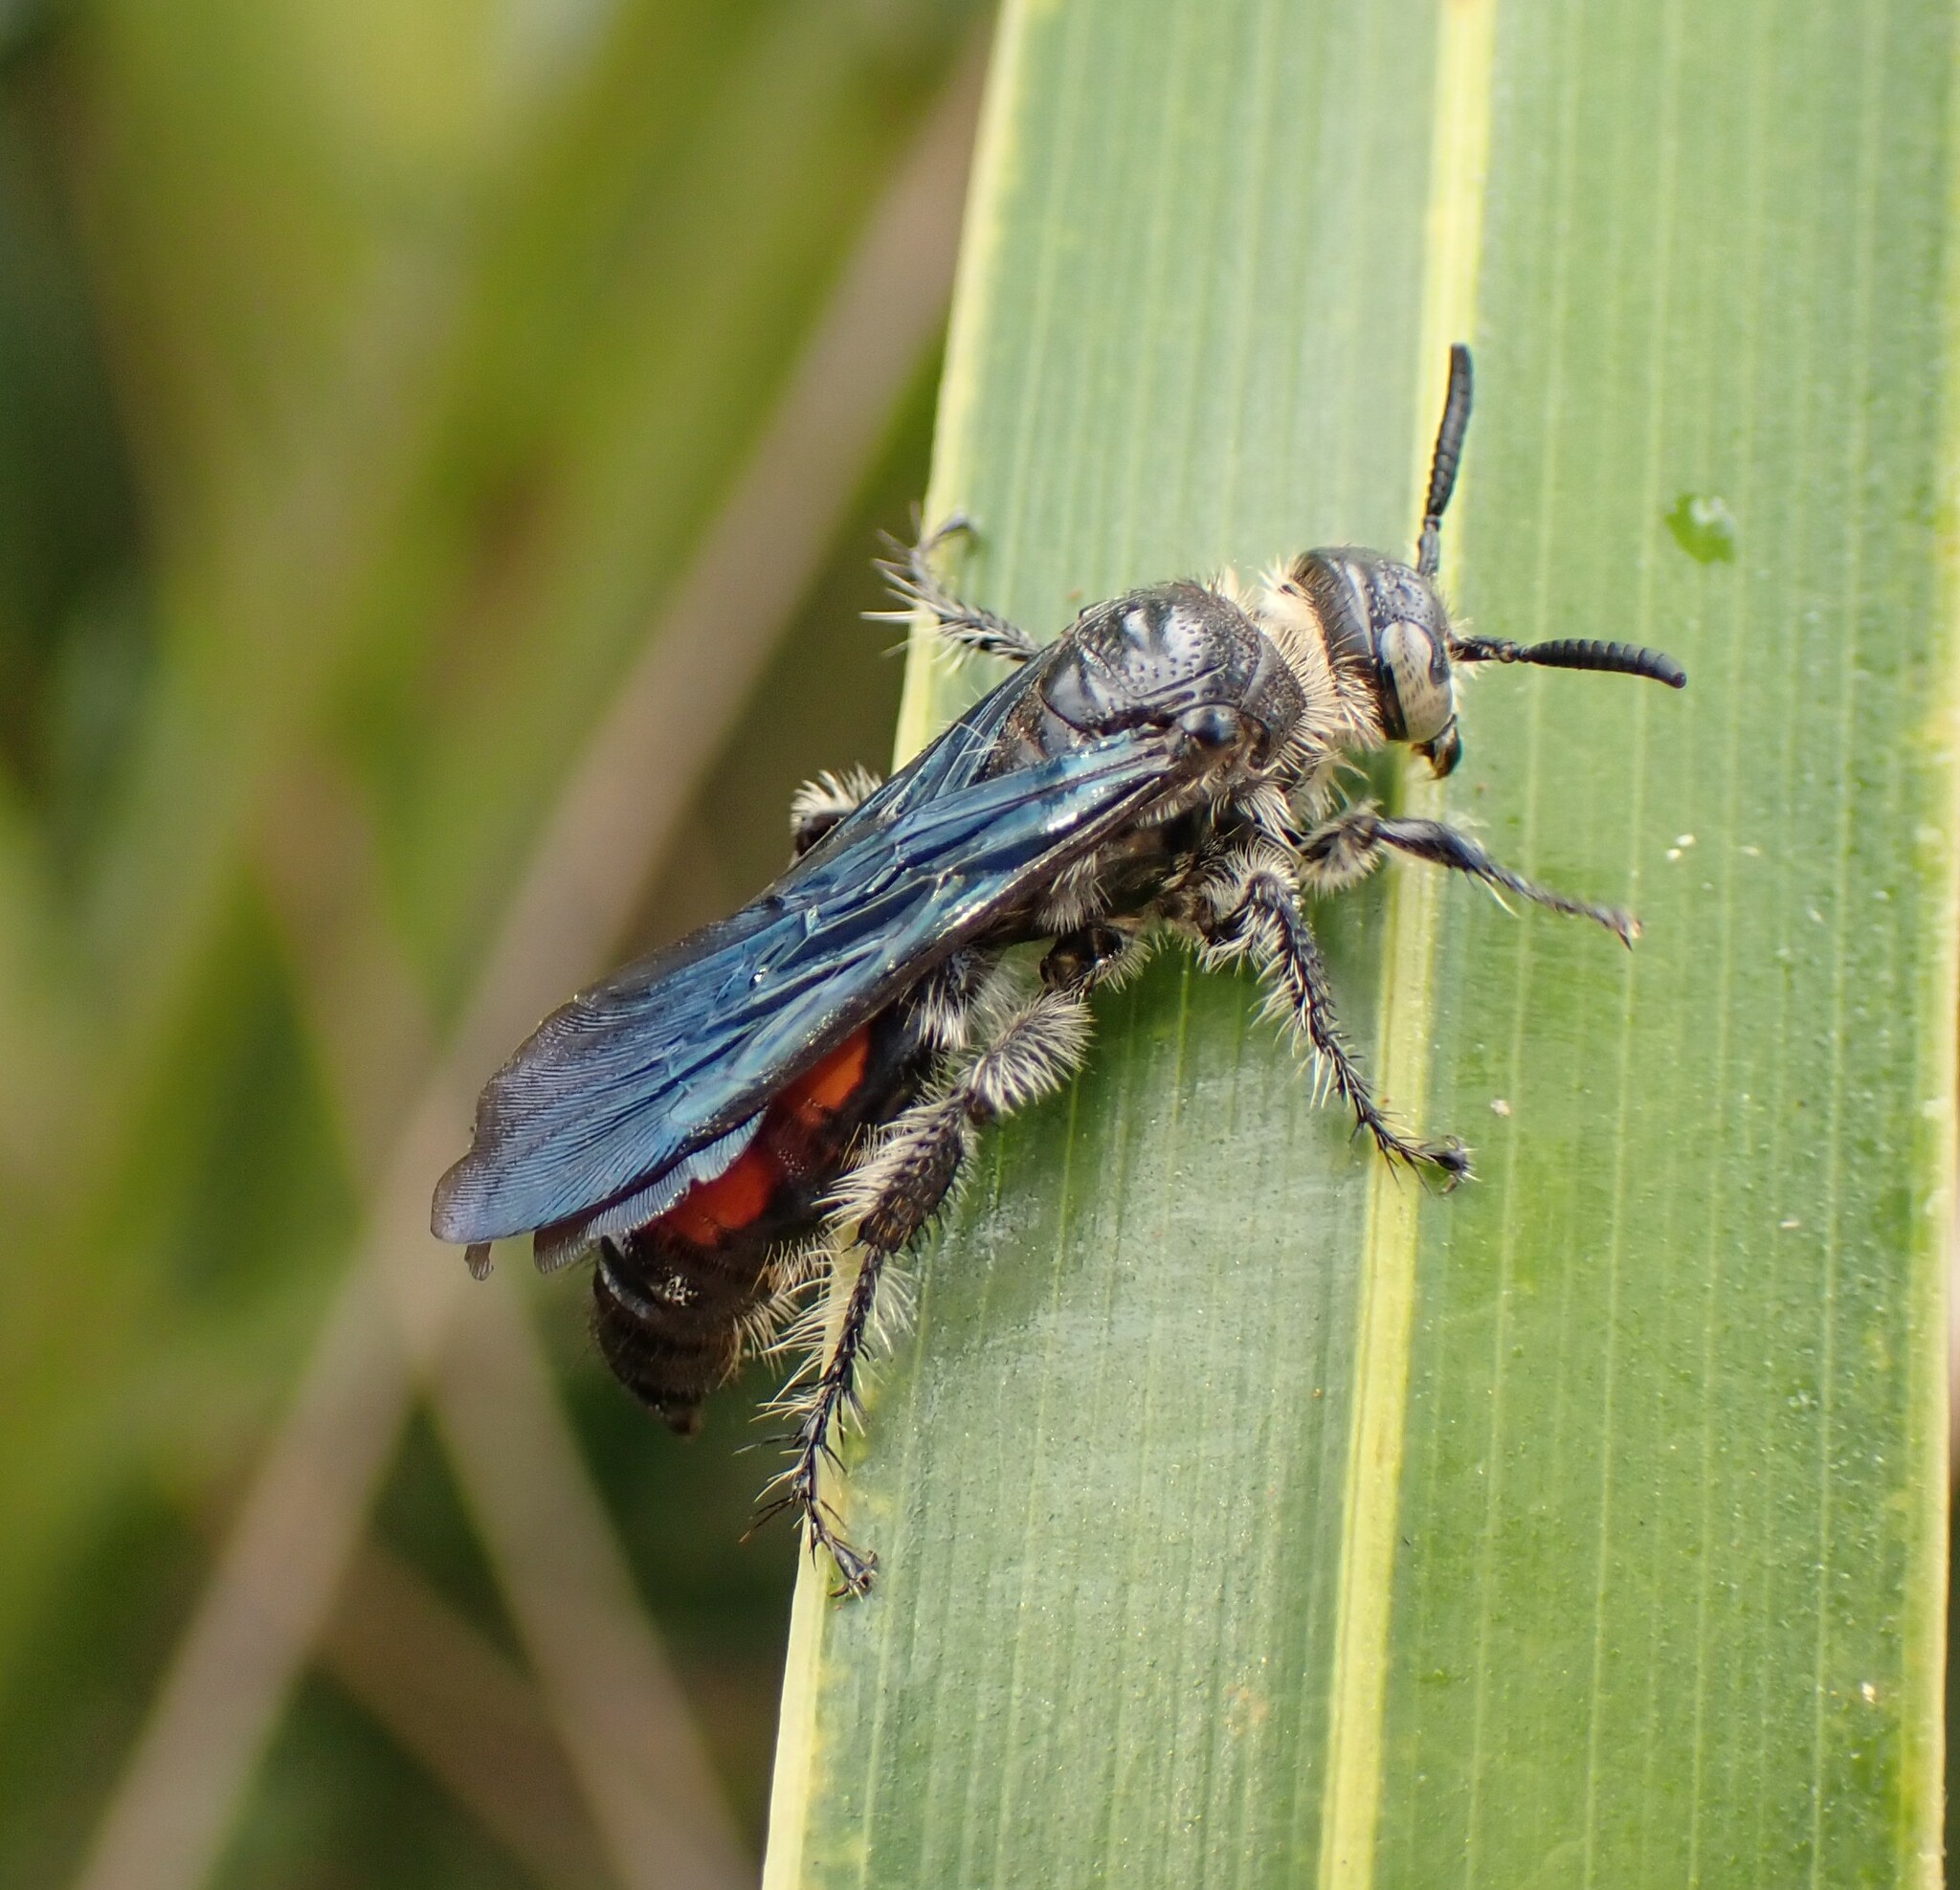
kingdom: Animalia
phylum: Arthropoda
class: Insecta
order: Hymenoptera
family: Scoliidae
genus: Dielis
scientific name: Dielis dorsata
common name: Scoliid wasp
